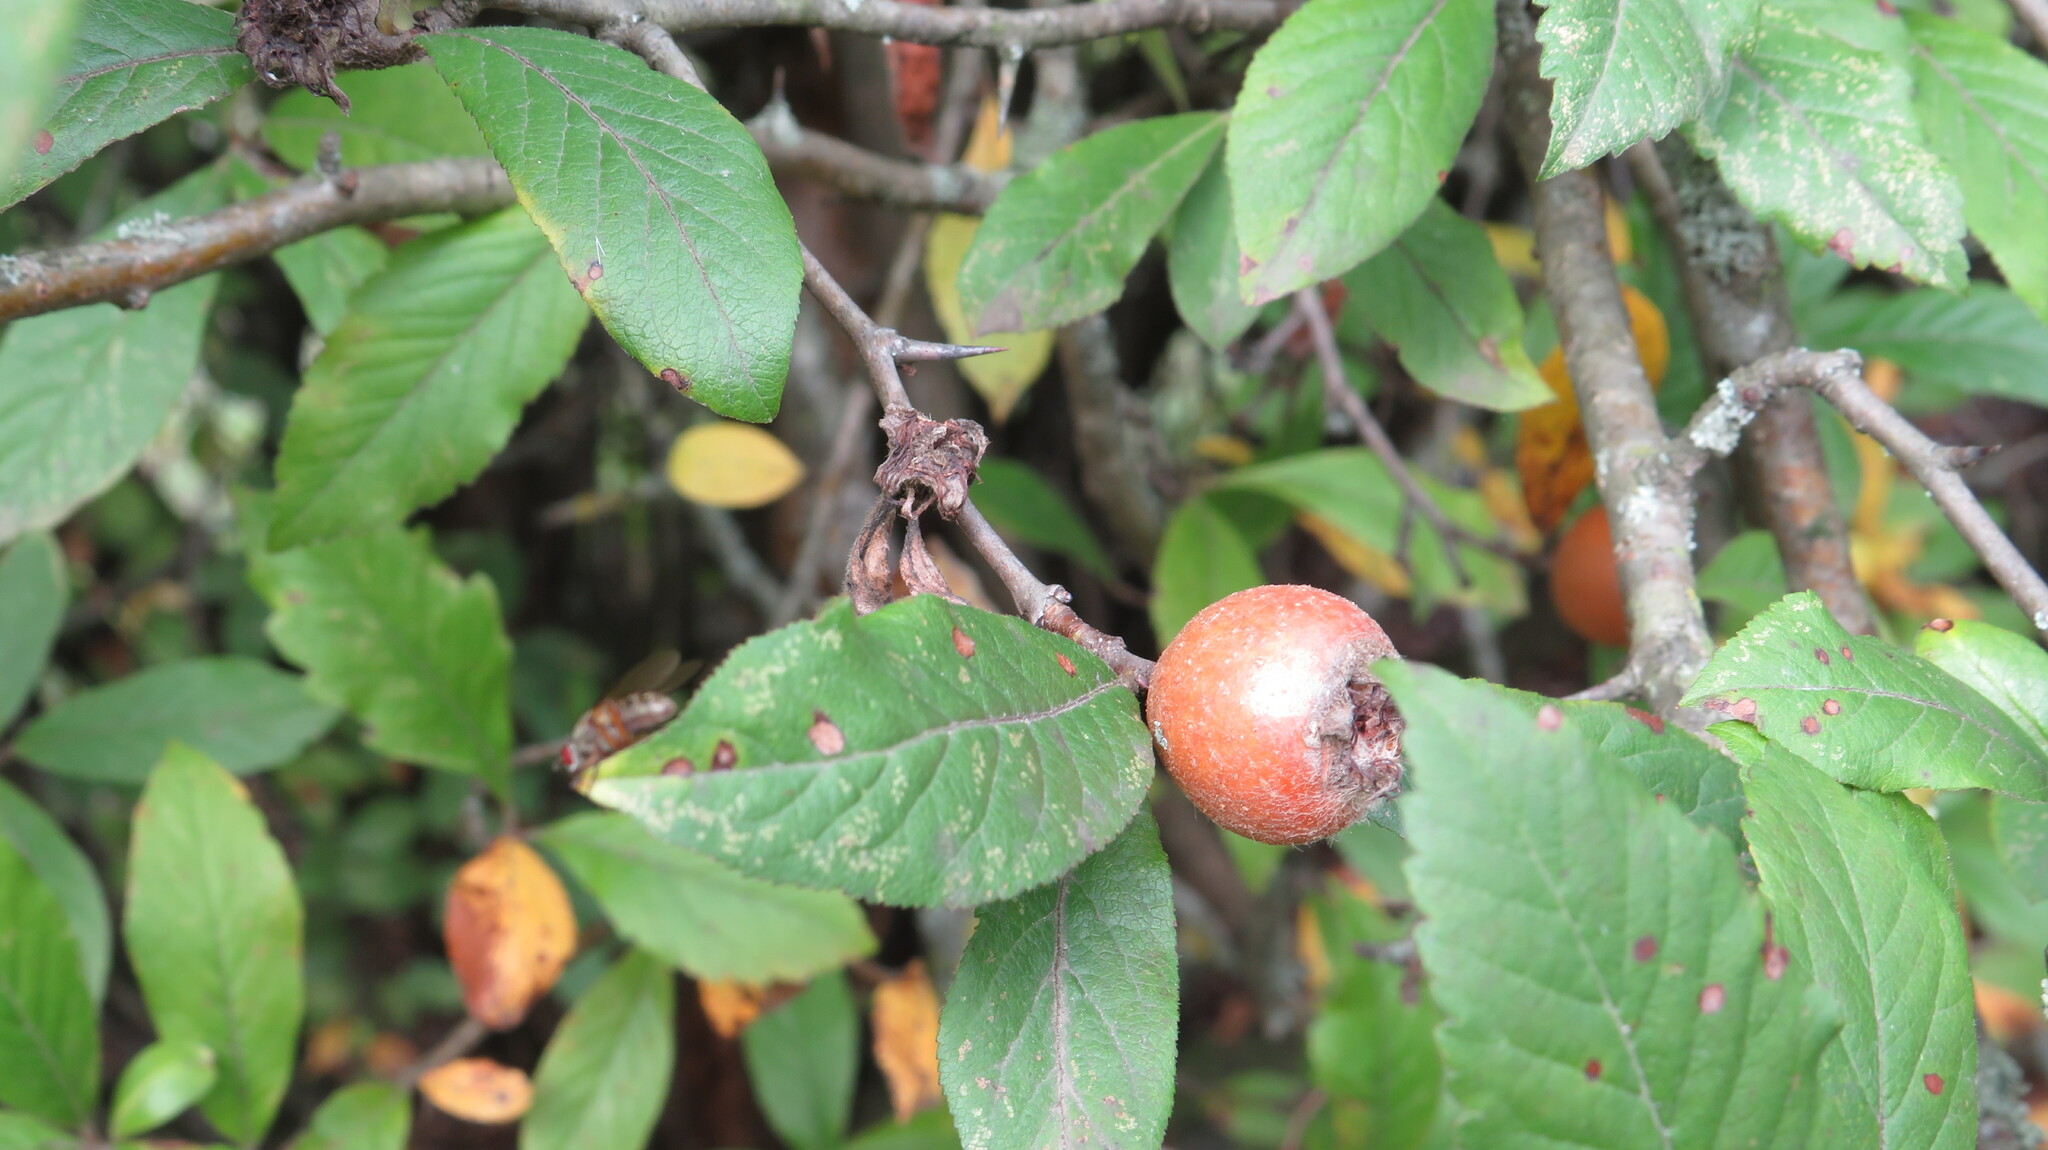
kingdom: Plantae
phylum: Tracheophyta
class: Magnoliopsida
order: Rosales
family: Rosaceae
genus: Mespilus
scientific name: Mespilus germanica
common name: Medlar
